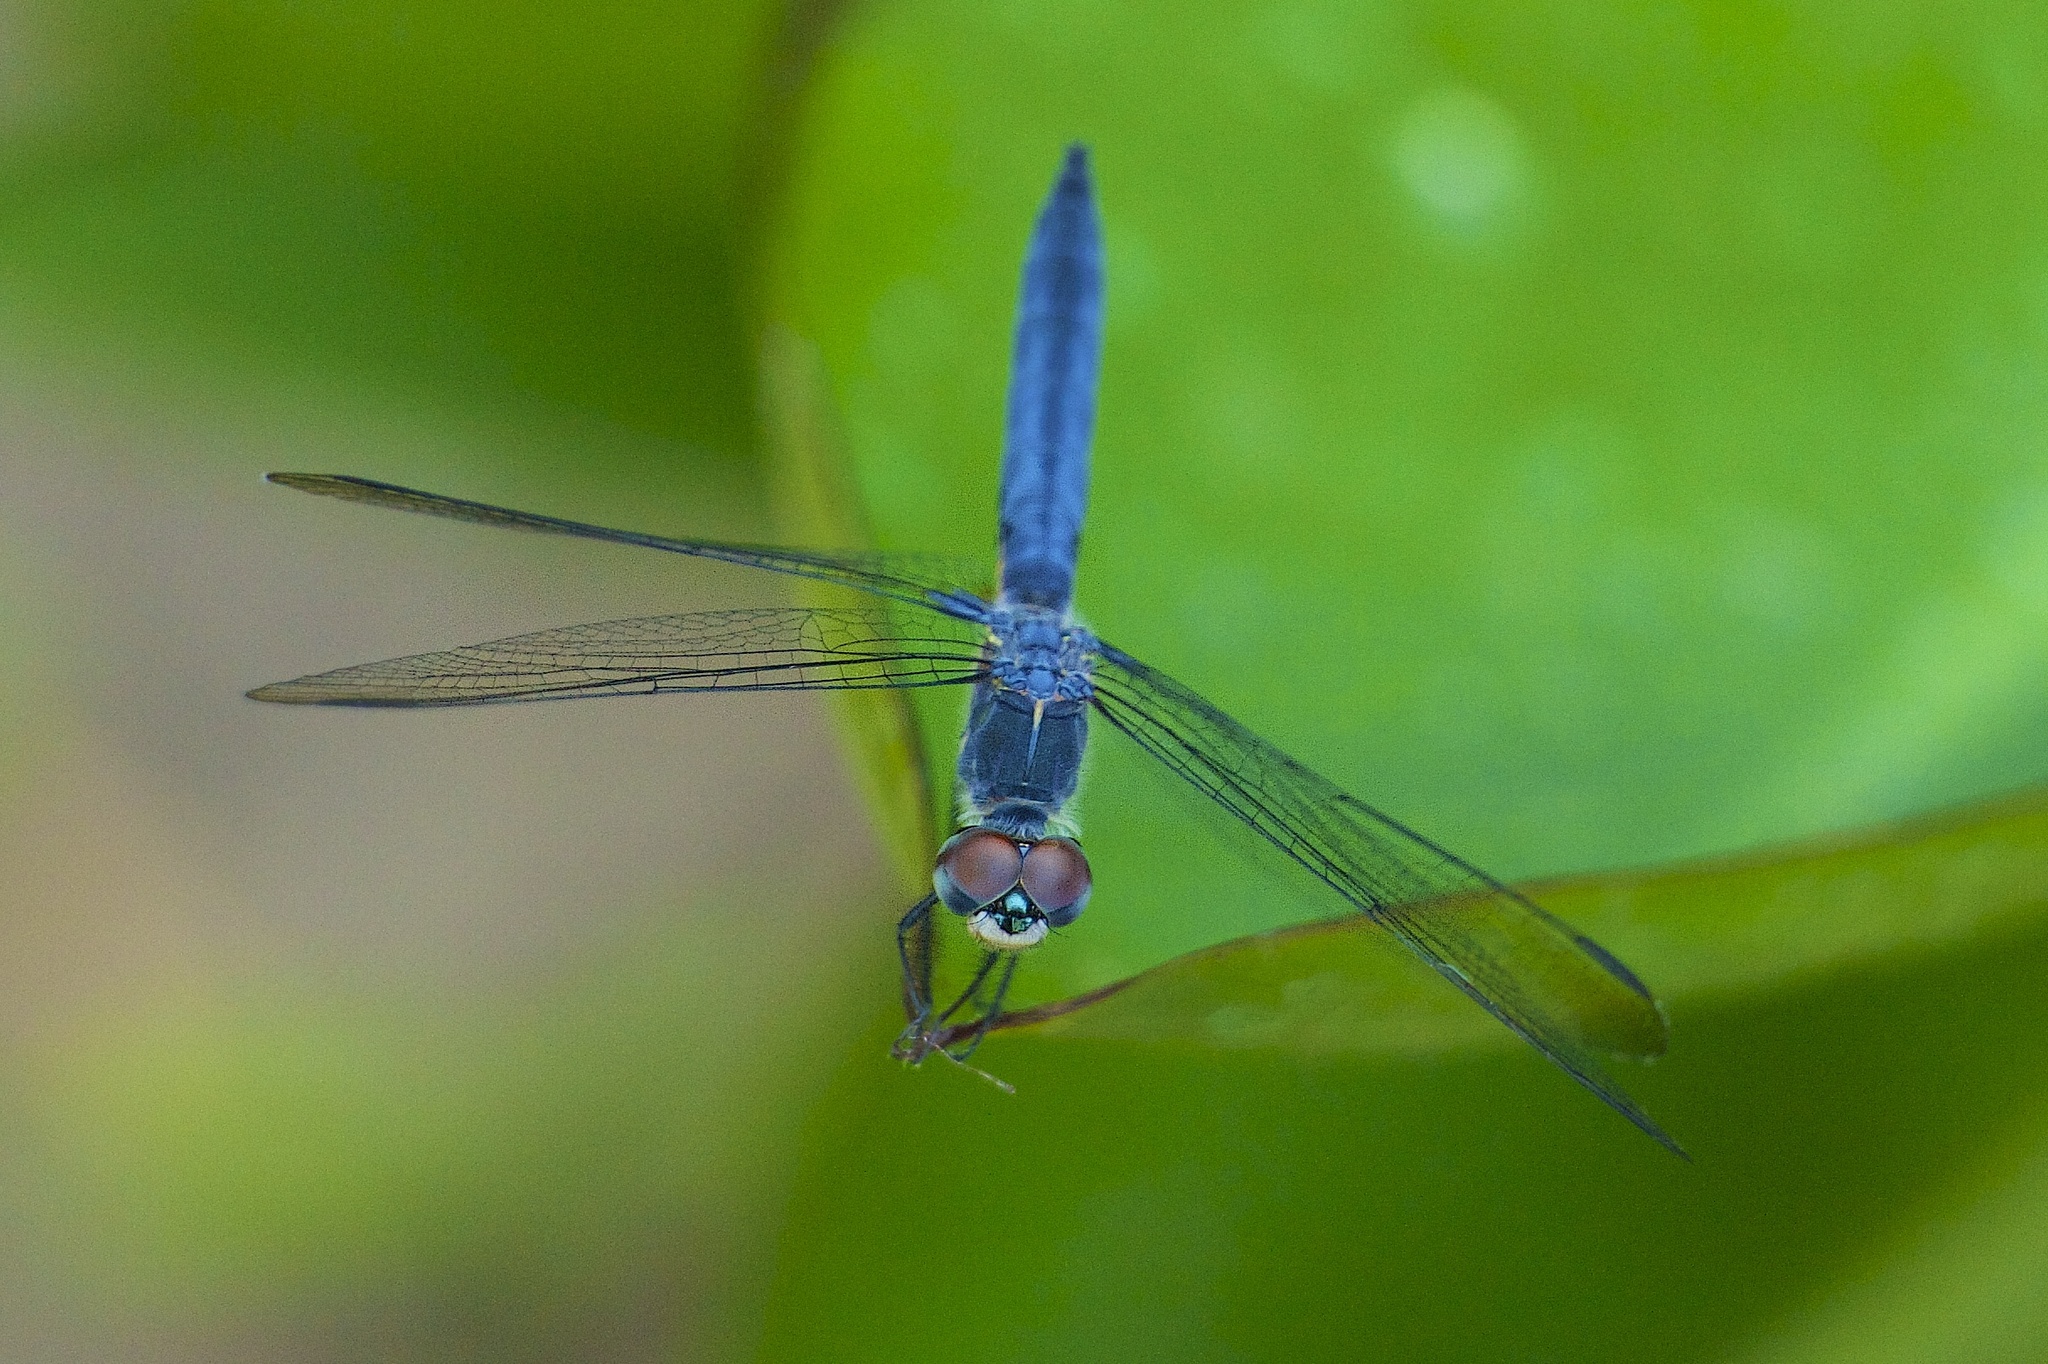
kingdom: Animalia
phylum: Arthropoda
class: Insecta
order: Odonata
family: Libellulidae
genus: Pachydiplax
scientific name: Pachydiplax longipennis
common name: Blue dasher
